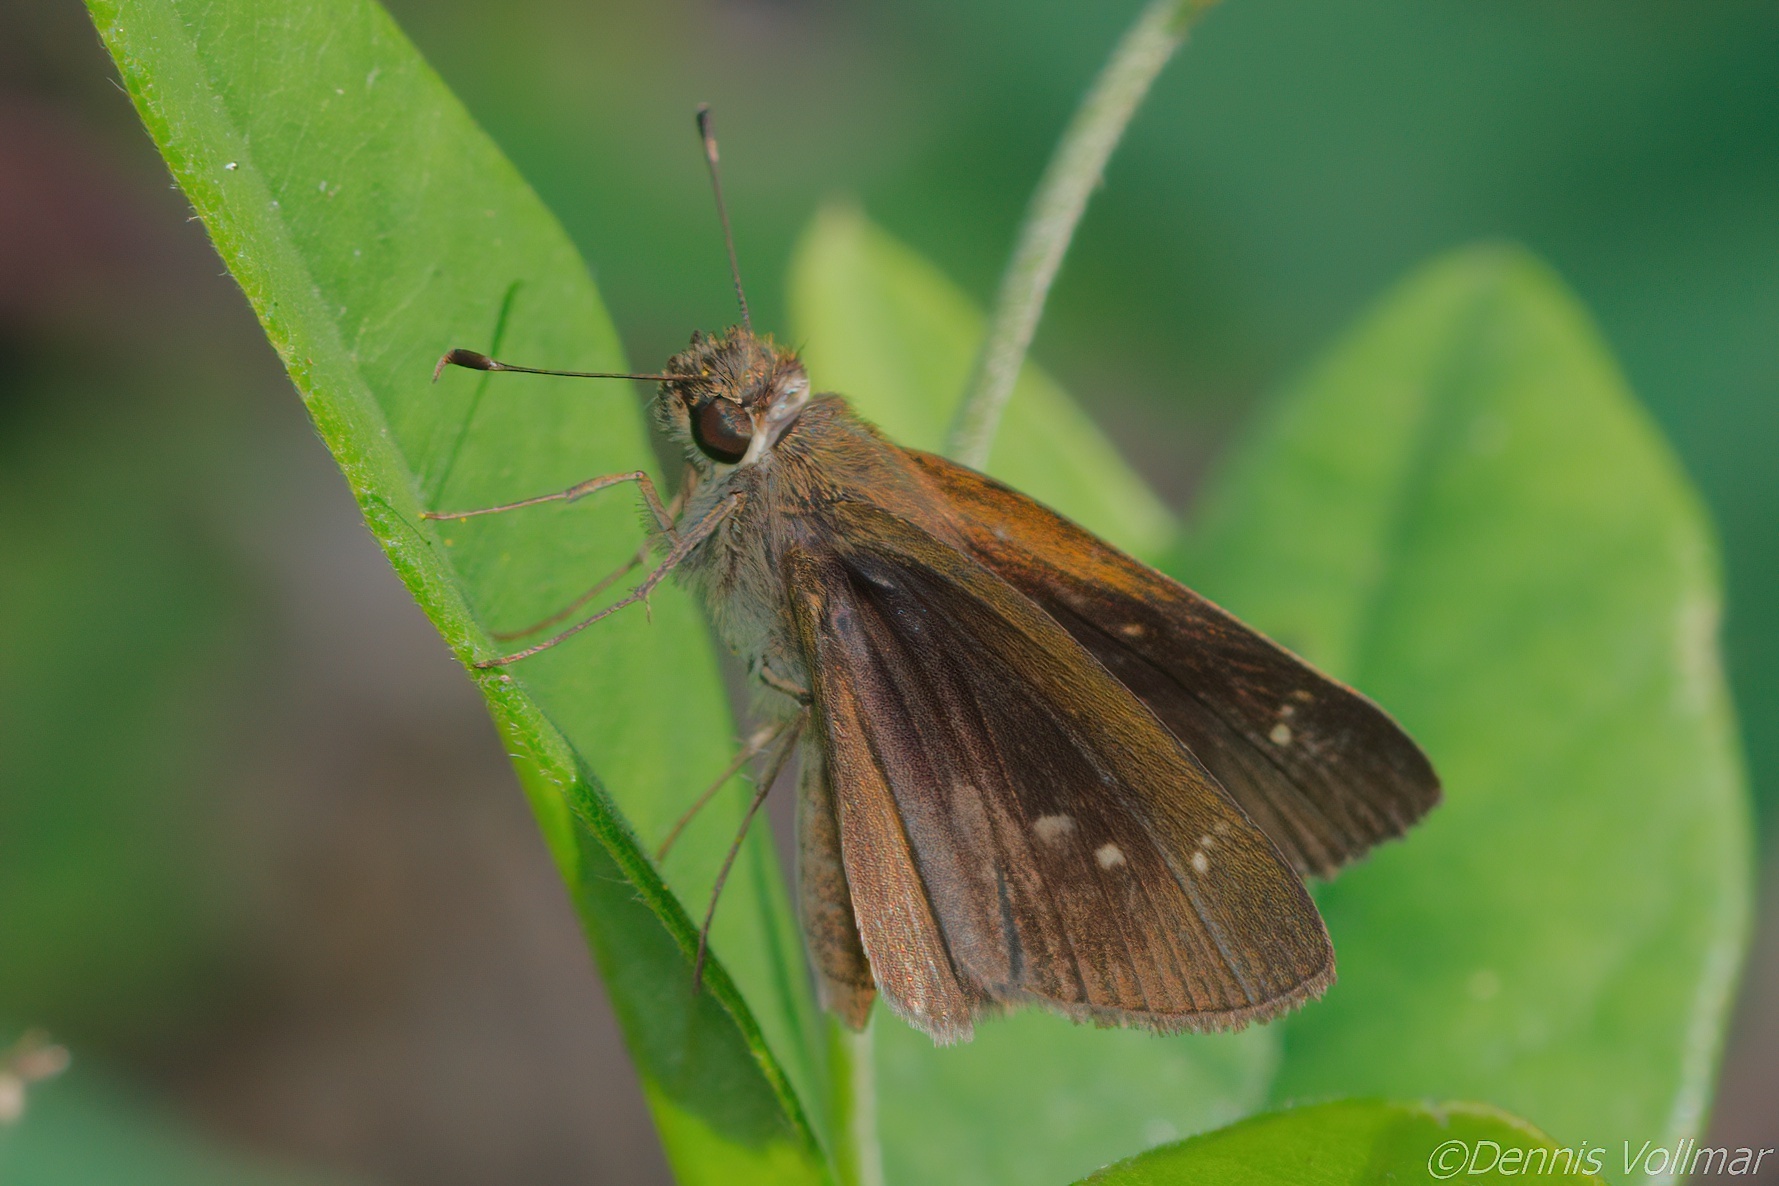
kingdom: Animalia
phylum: Arthropoda
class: Insecta
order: Lepidoptera
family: Hesperiidae
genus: Cymaenes
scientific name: Cymaenes tripunctus
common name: Dingy dotted skipper
